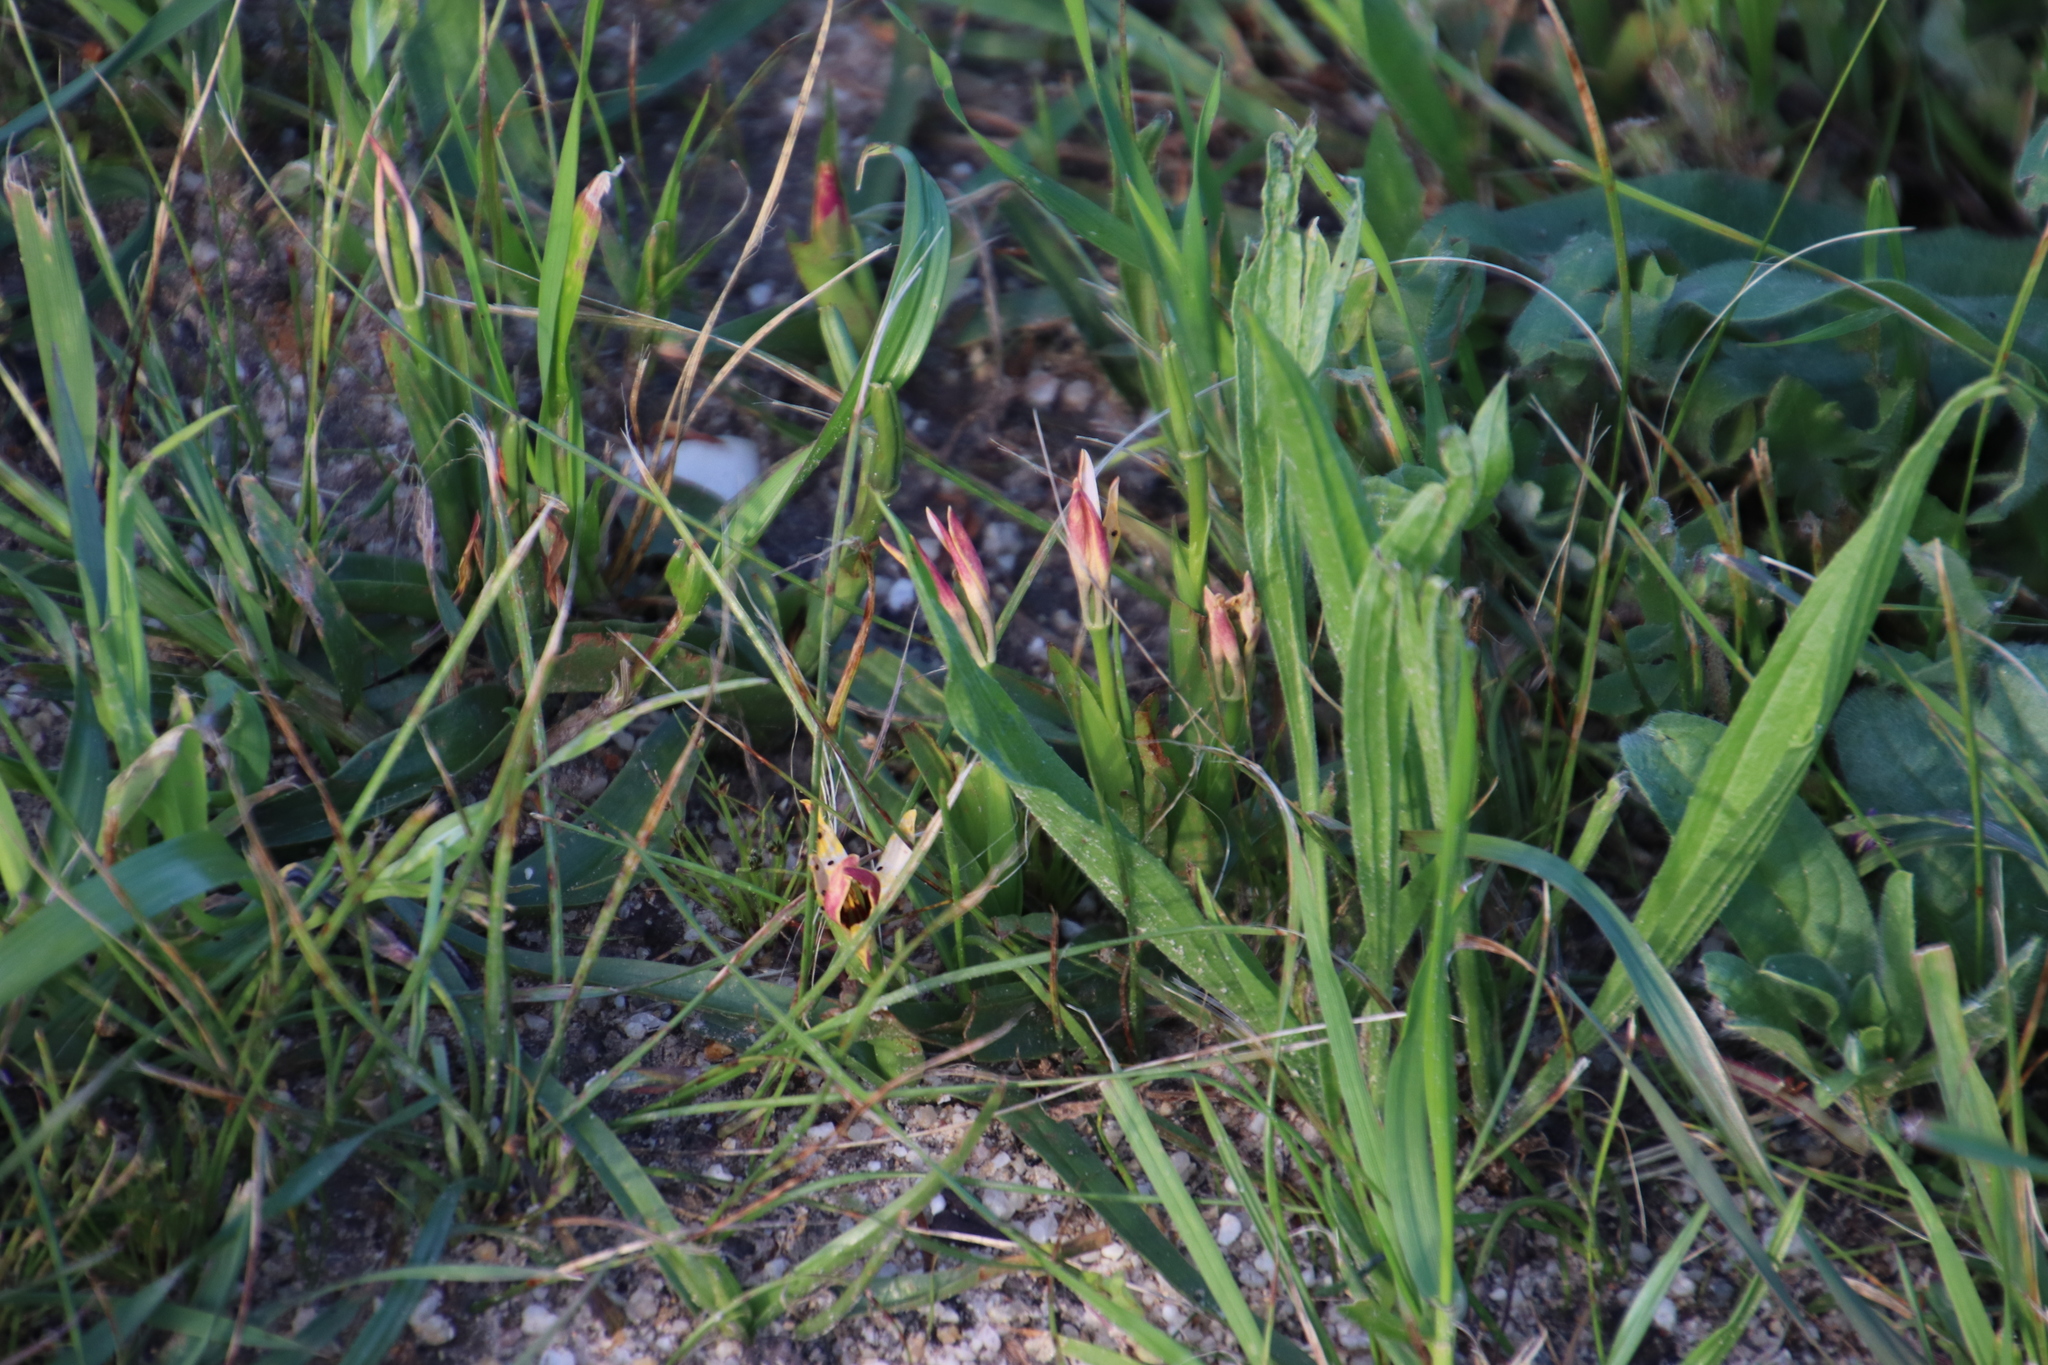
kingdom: Plantae
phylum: Tracheophyta
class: Liliopsida
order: Liliales
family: Colchicaceae
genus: Baeometra
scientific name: Baeometra uniflora
